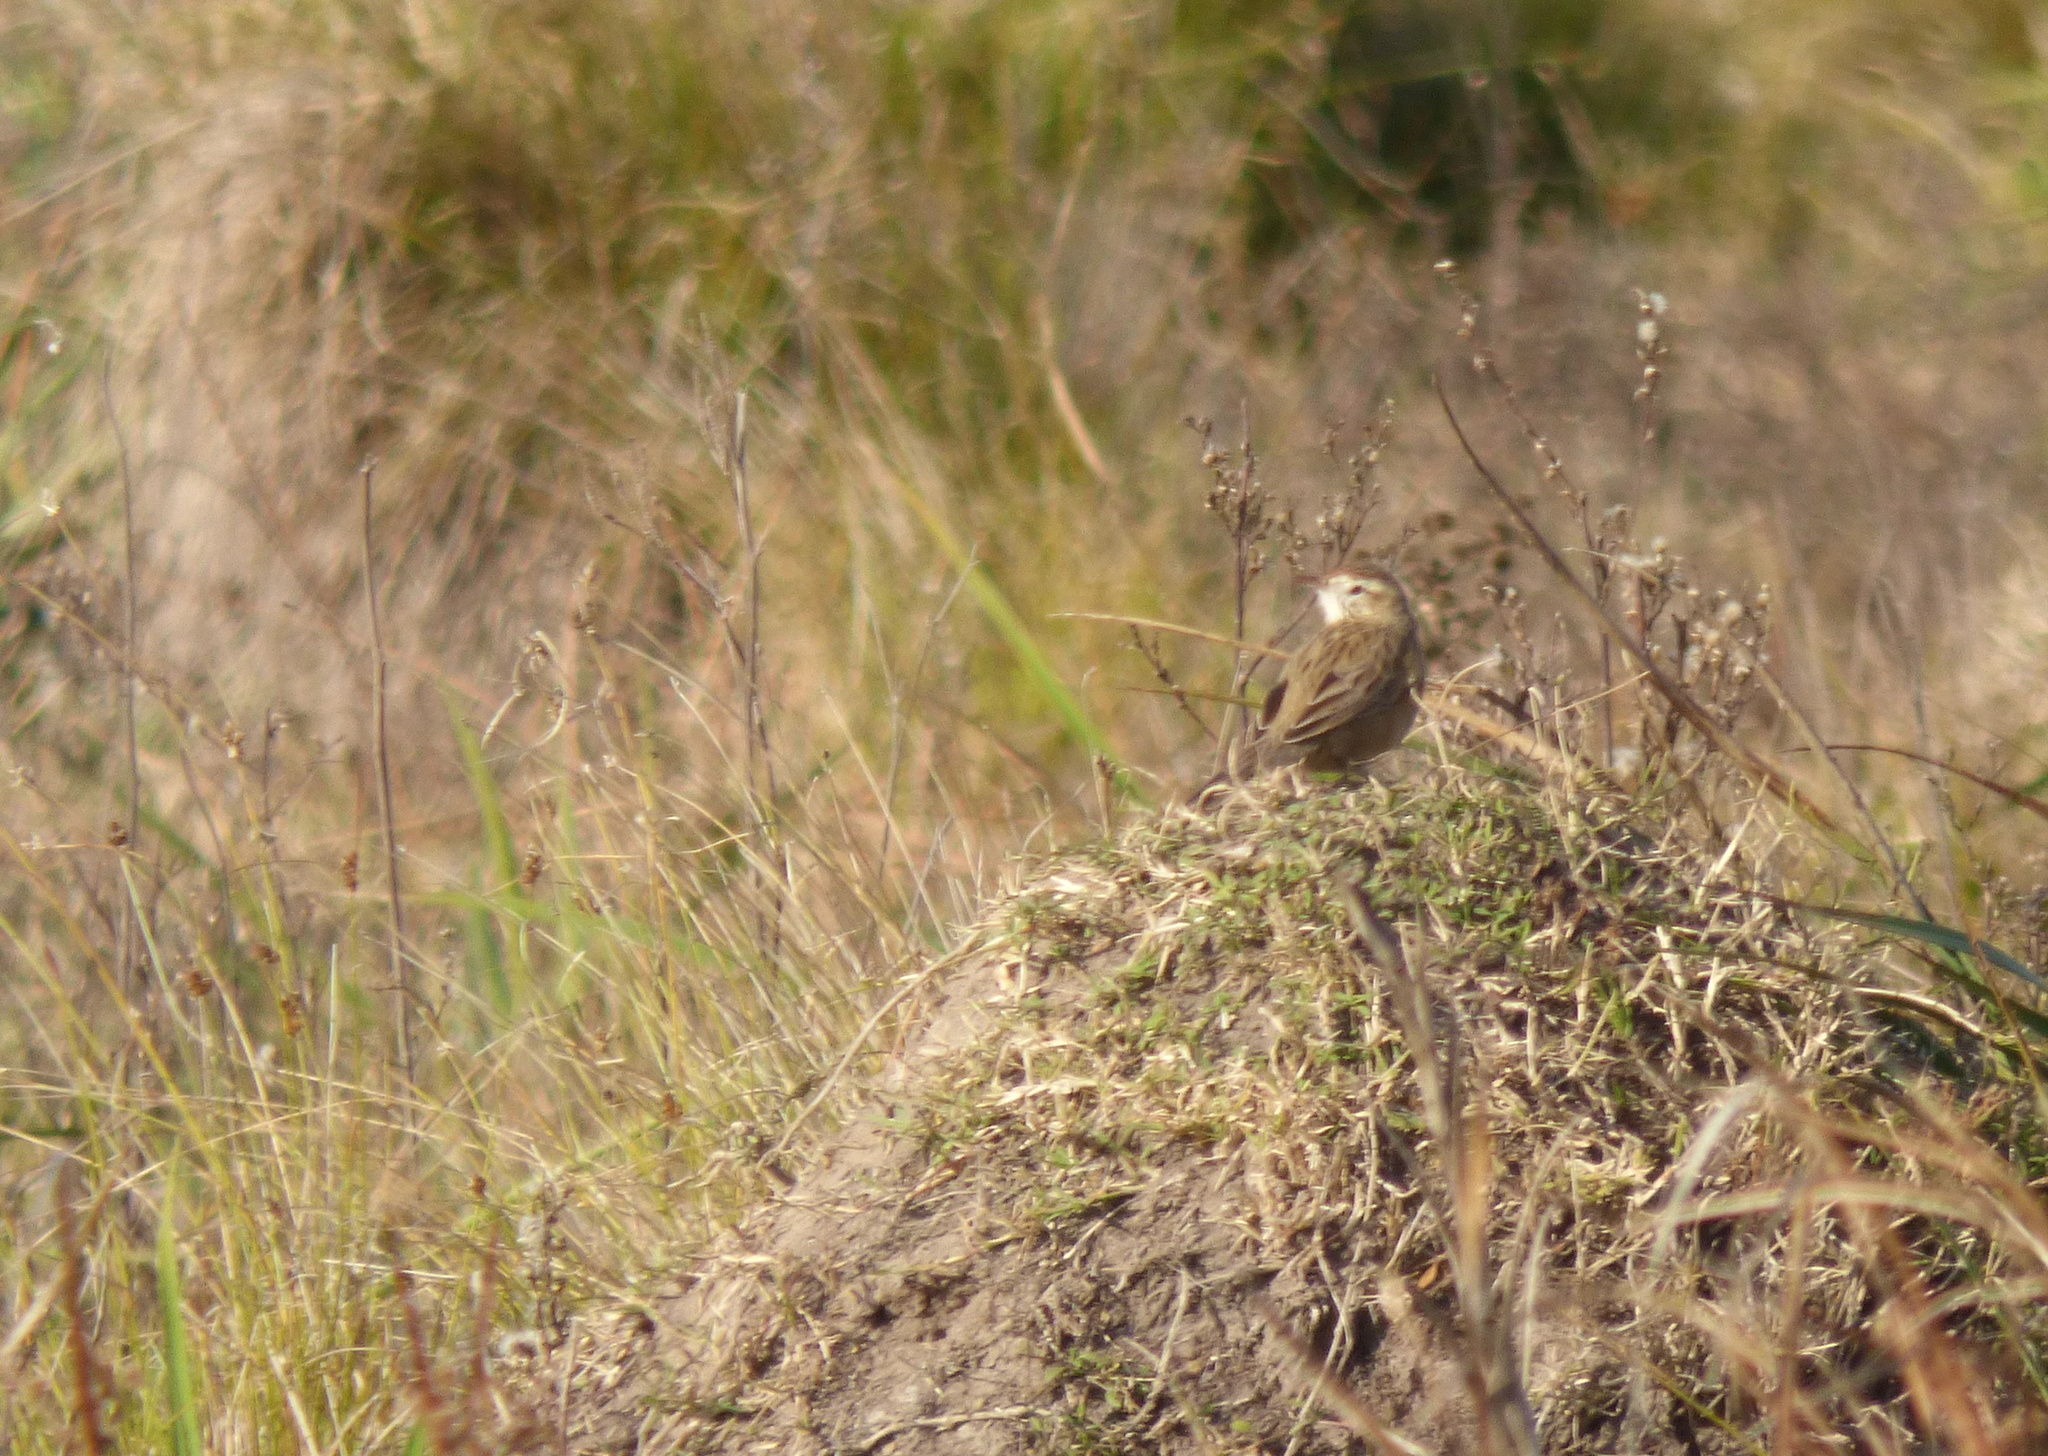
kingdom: Animalia
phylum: Chordata
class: Aves
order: Passeriformes
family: Furnariidae
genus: Anumbius
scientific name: Anumbius annumbi
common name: Firewood-gatherer
